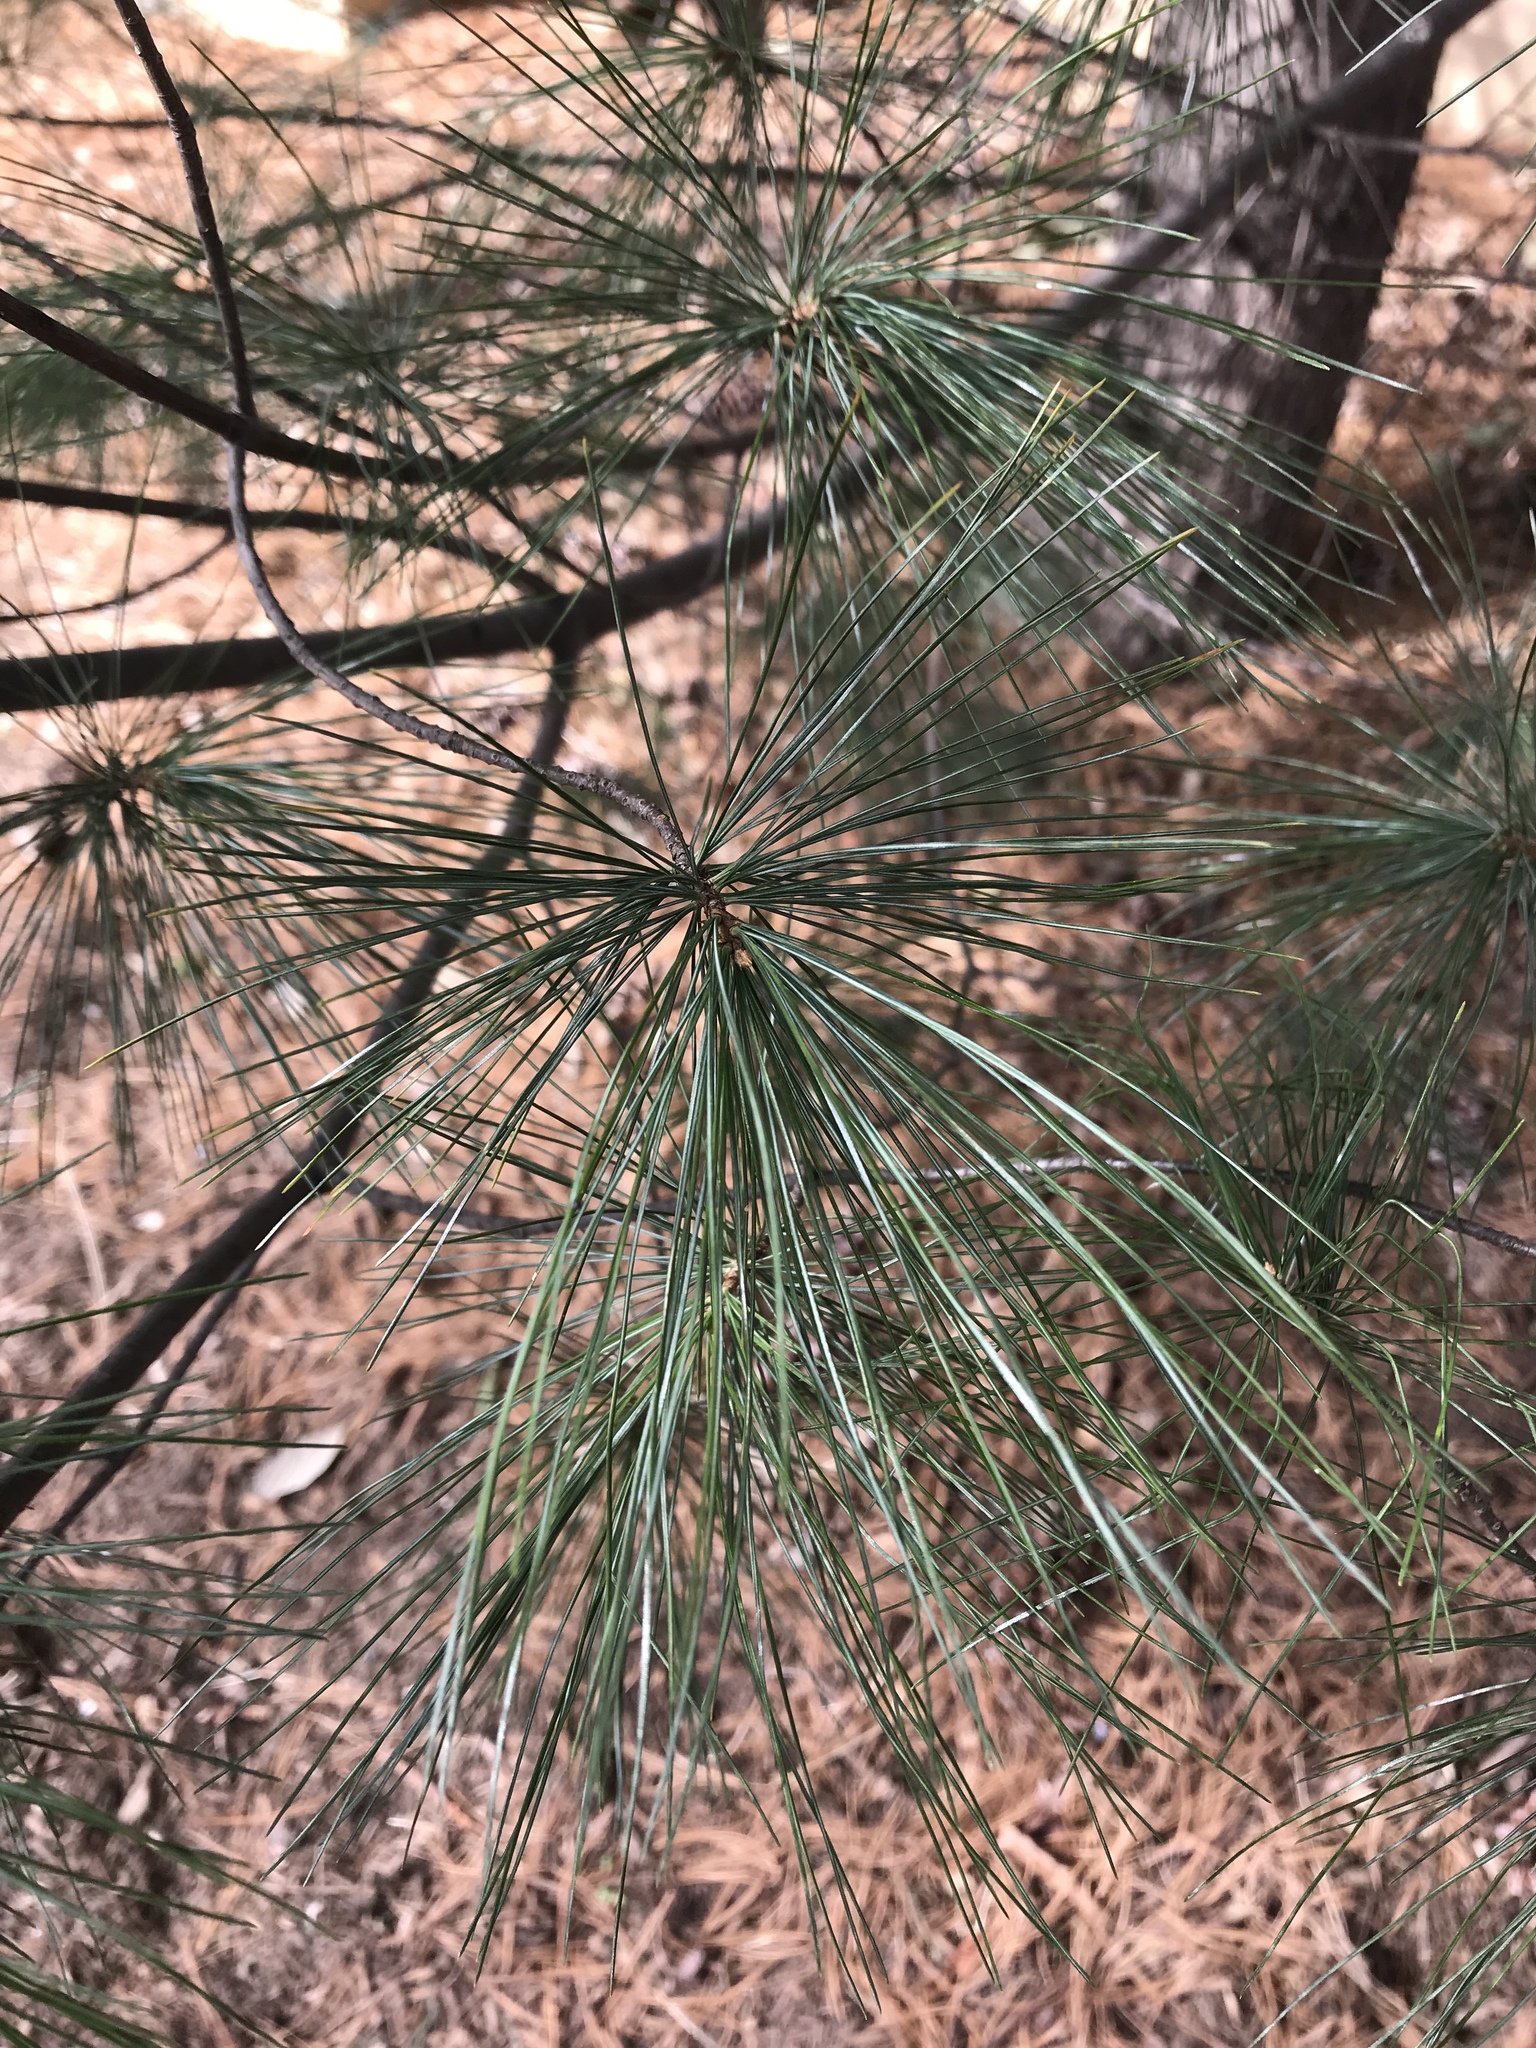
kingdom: Plantae
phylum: Tracheophyta
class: Pinopsida
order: Pinales
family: Pinaceae
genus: Pinus
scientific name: Pinus strobus
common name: Weymouth pine
